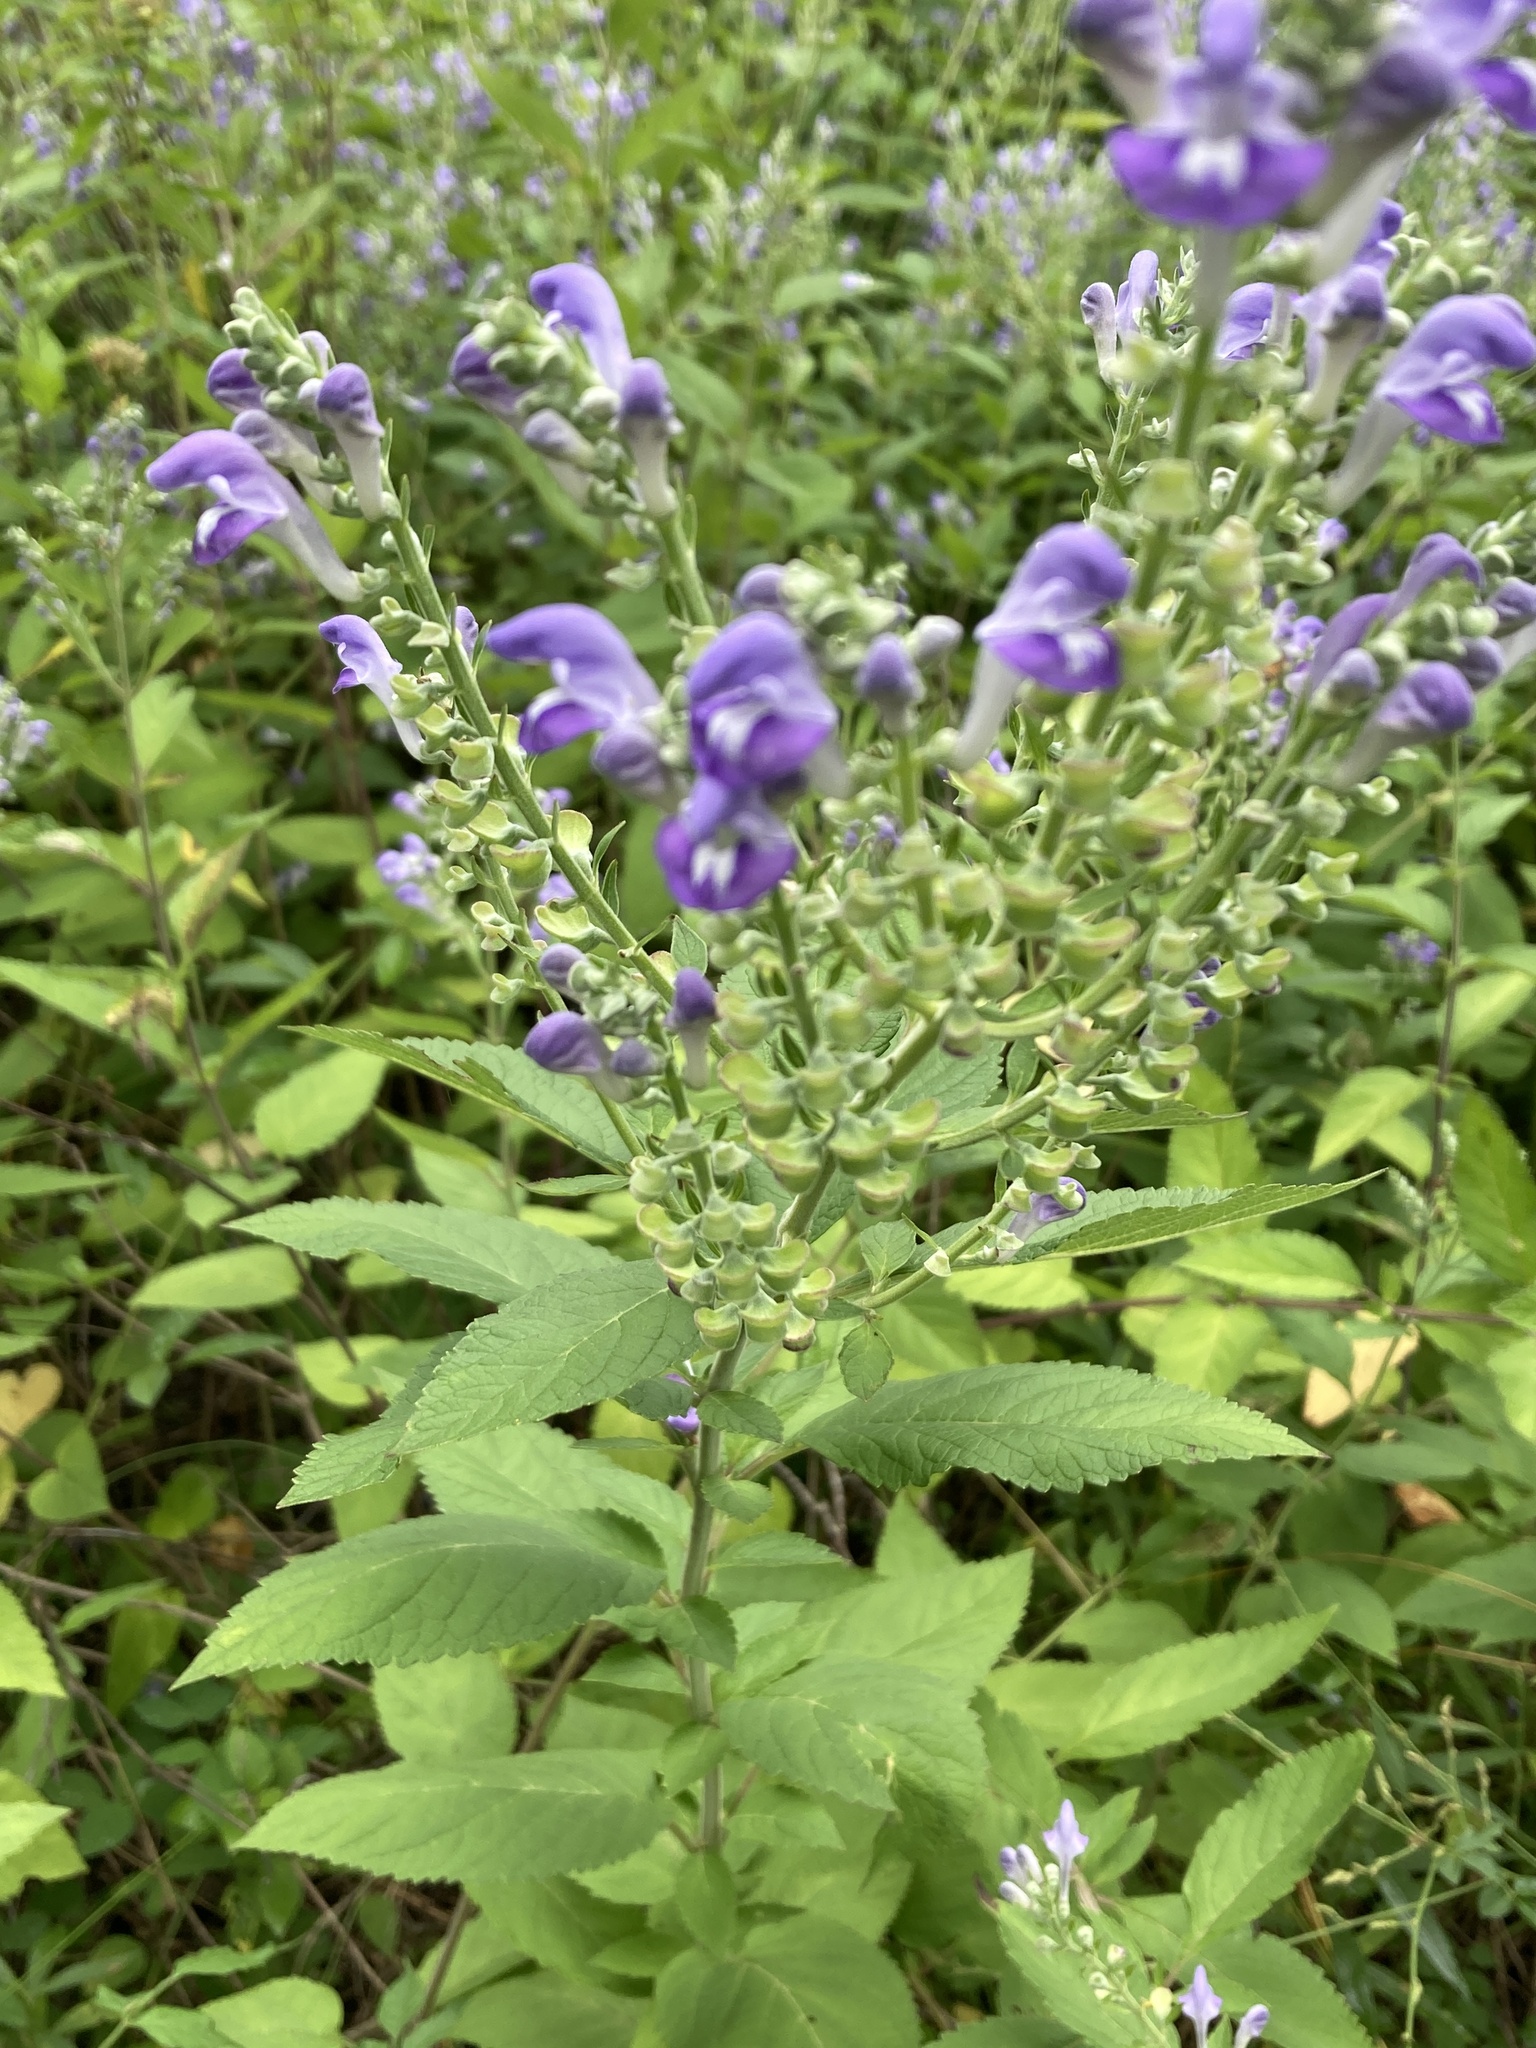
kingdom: Plantae
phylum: Tracheophyta
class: Magnoliopsida
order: Lamiales
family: Lamiaceae
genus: Scutellaria
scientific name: Scutellaria incana
